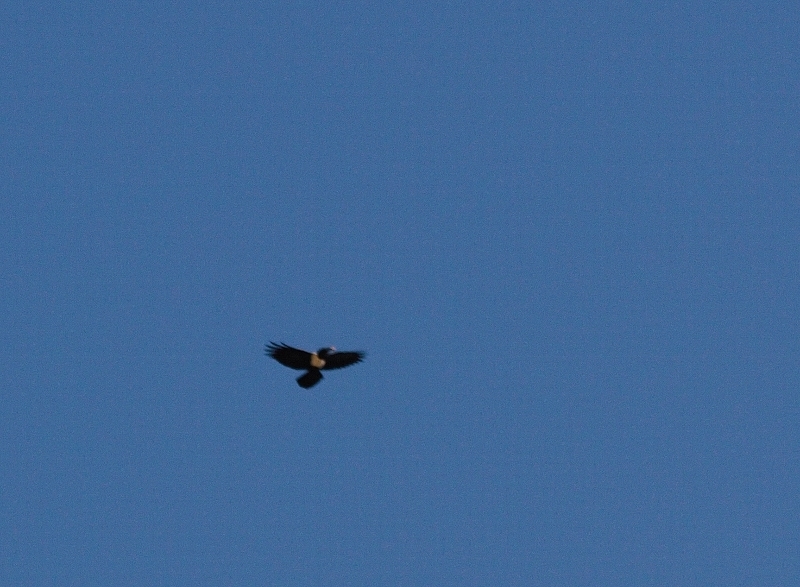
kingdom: Animalia
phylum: Chordata
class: Aves
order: Passeriformes
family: Corvidae
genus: Corvus
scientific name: Corvus albus
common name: Pied crow
